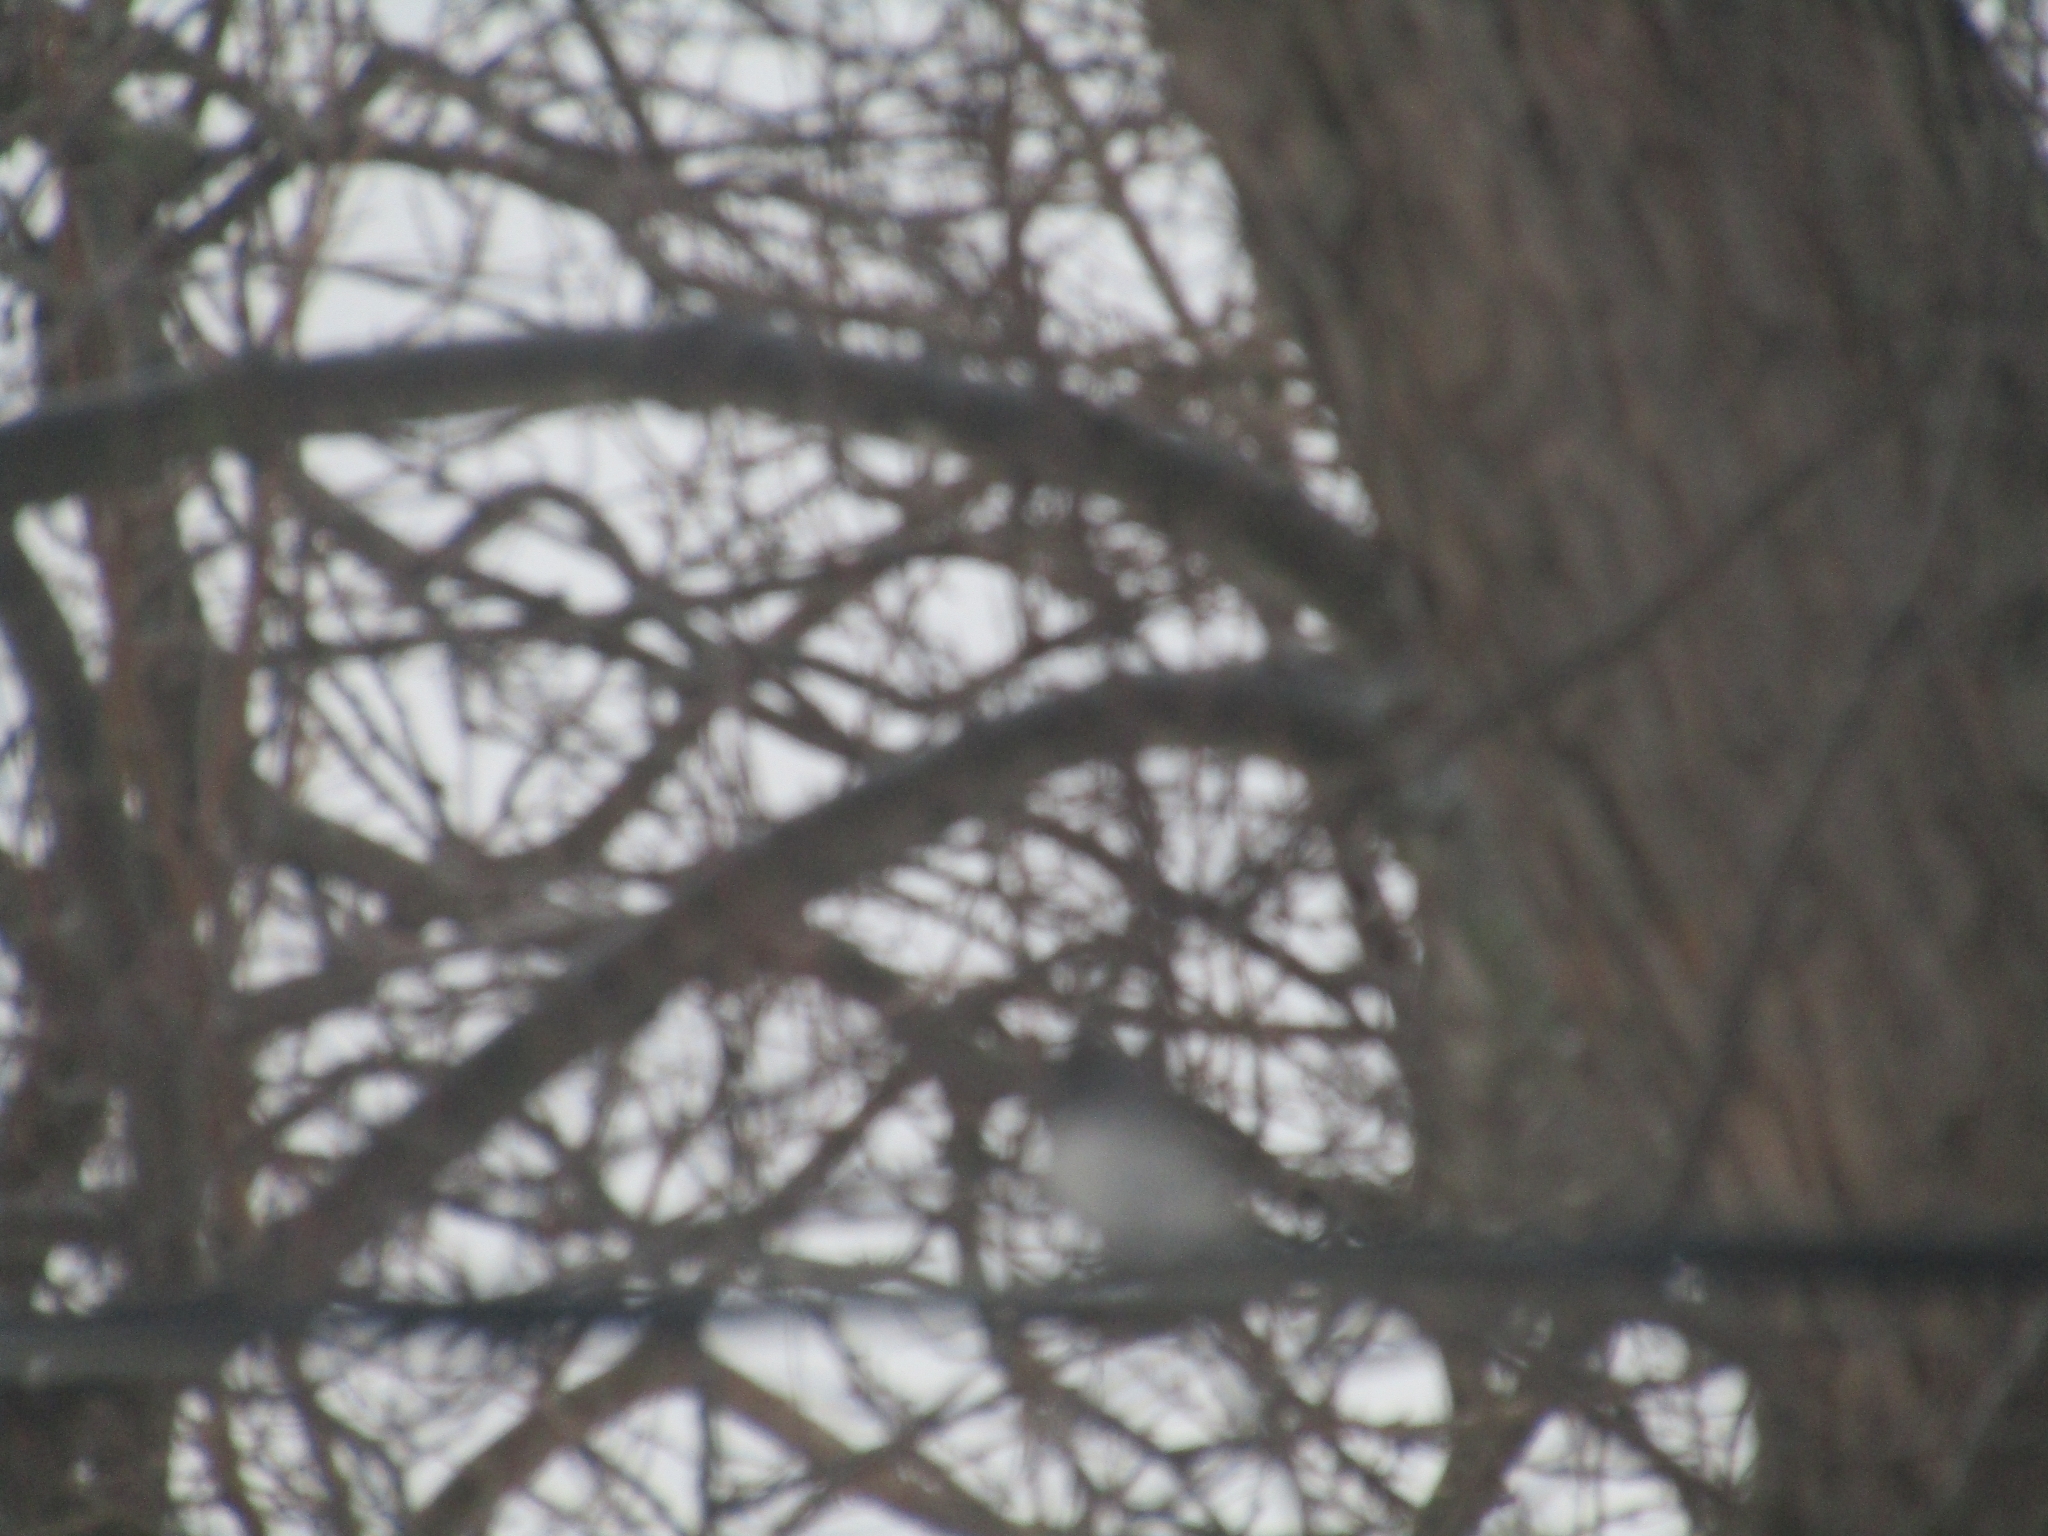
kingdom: Animalia
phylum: Chordata
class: Aves
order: Passeriformes
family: Passerellidae
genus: Junco
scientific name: Junco hyemalis
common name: Dark-eyed junco
